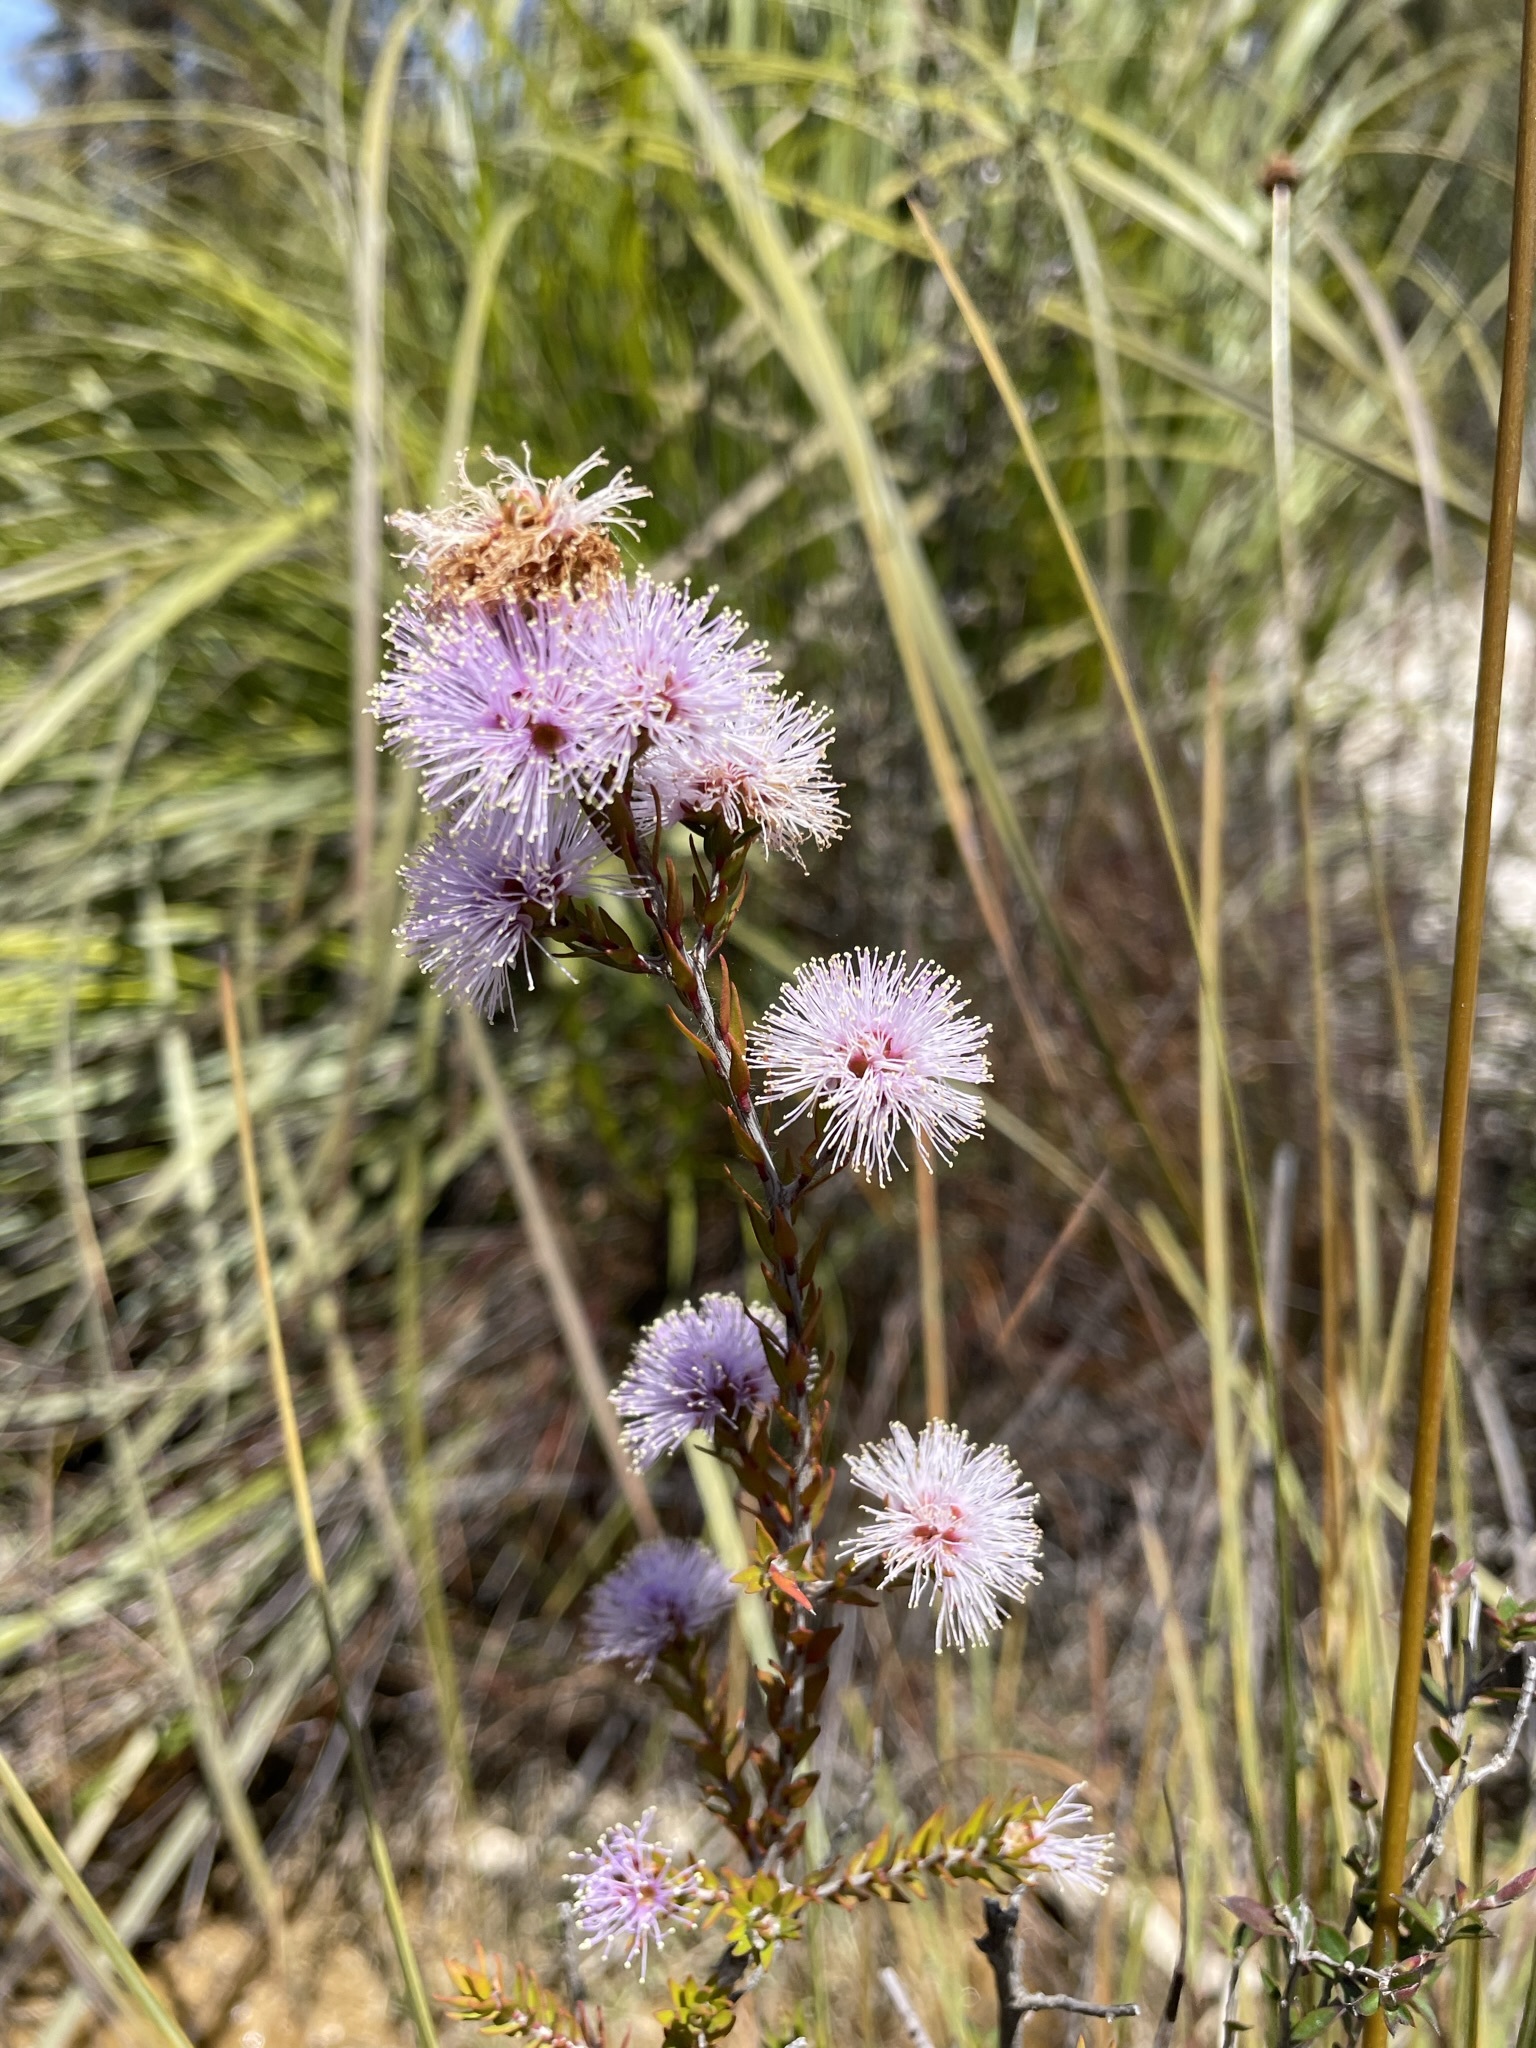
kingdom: Plantae
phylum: Tracheophyta
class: Magnoliopsida
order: Myrtales
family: Myrtaceae
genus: Melaleuca
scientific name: Melaleuca squamea
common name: Swamp melaleuca
